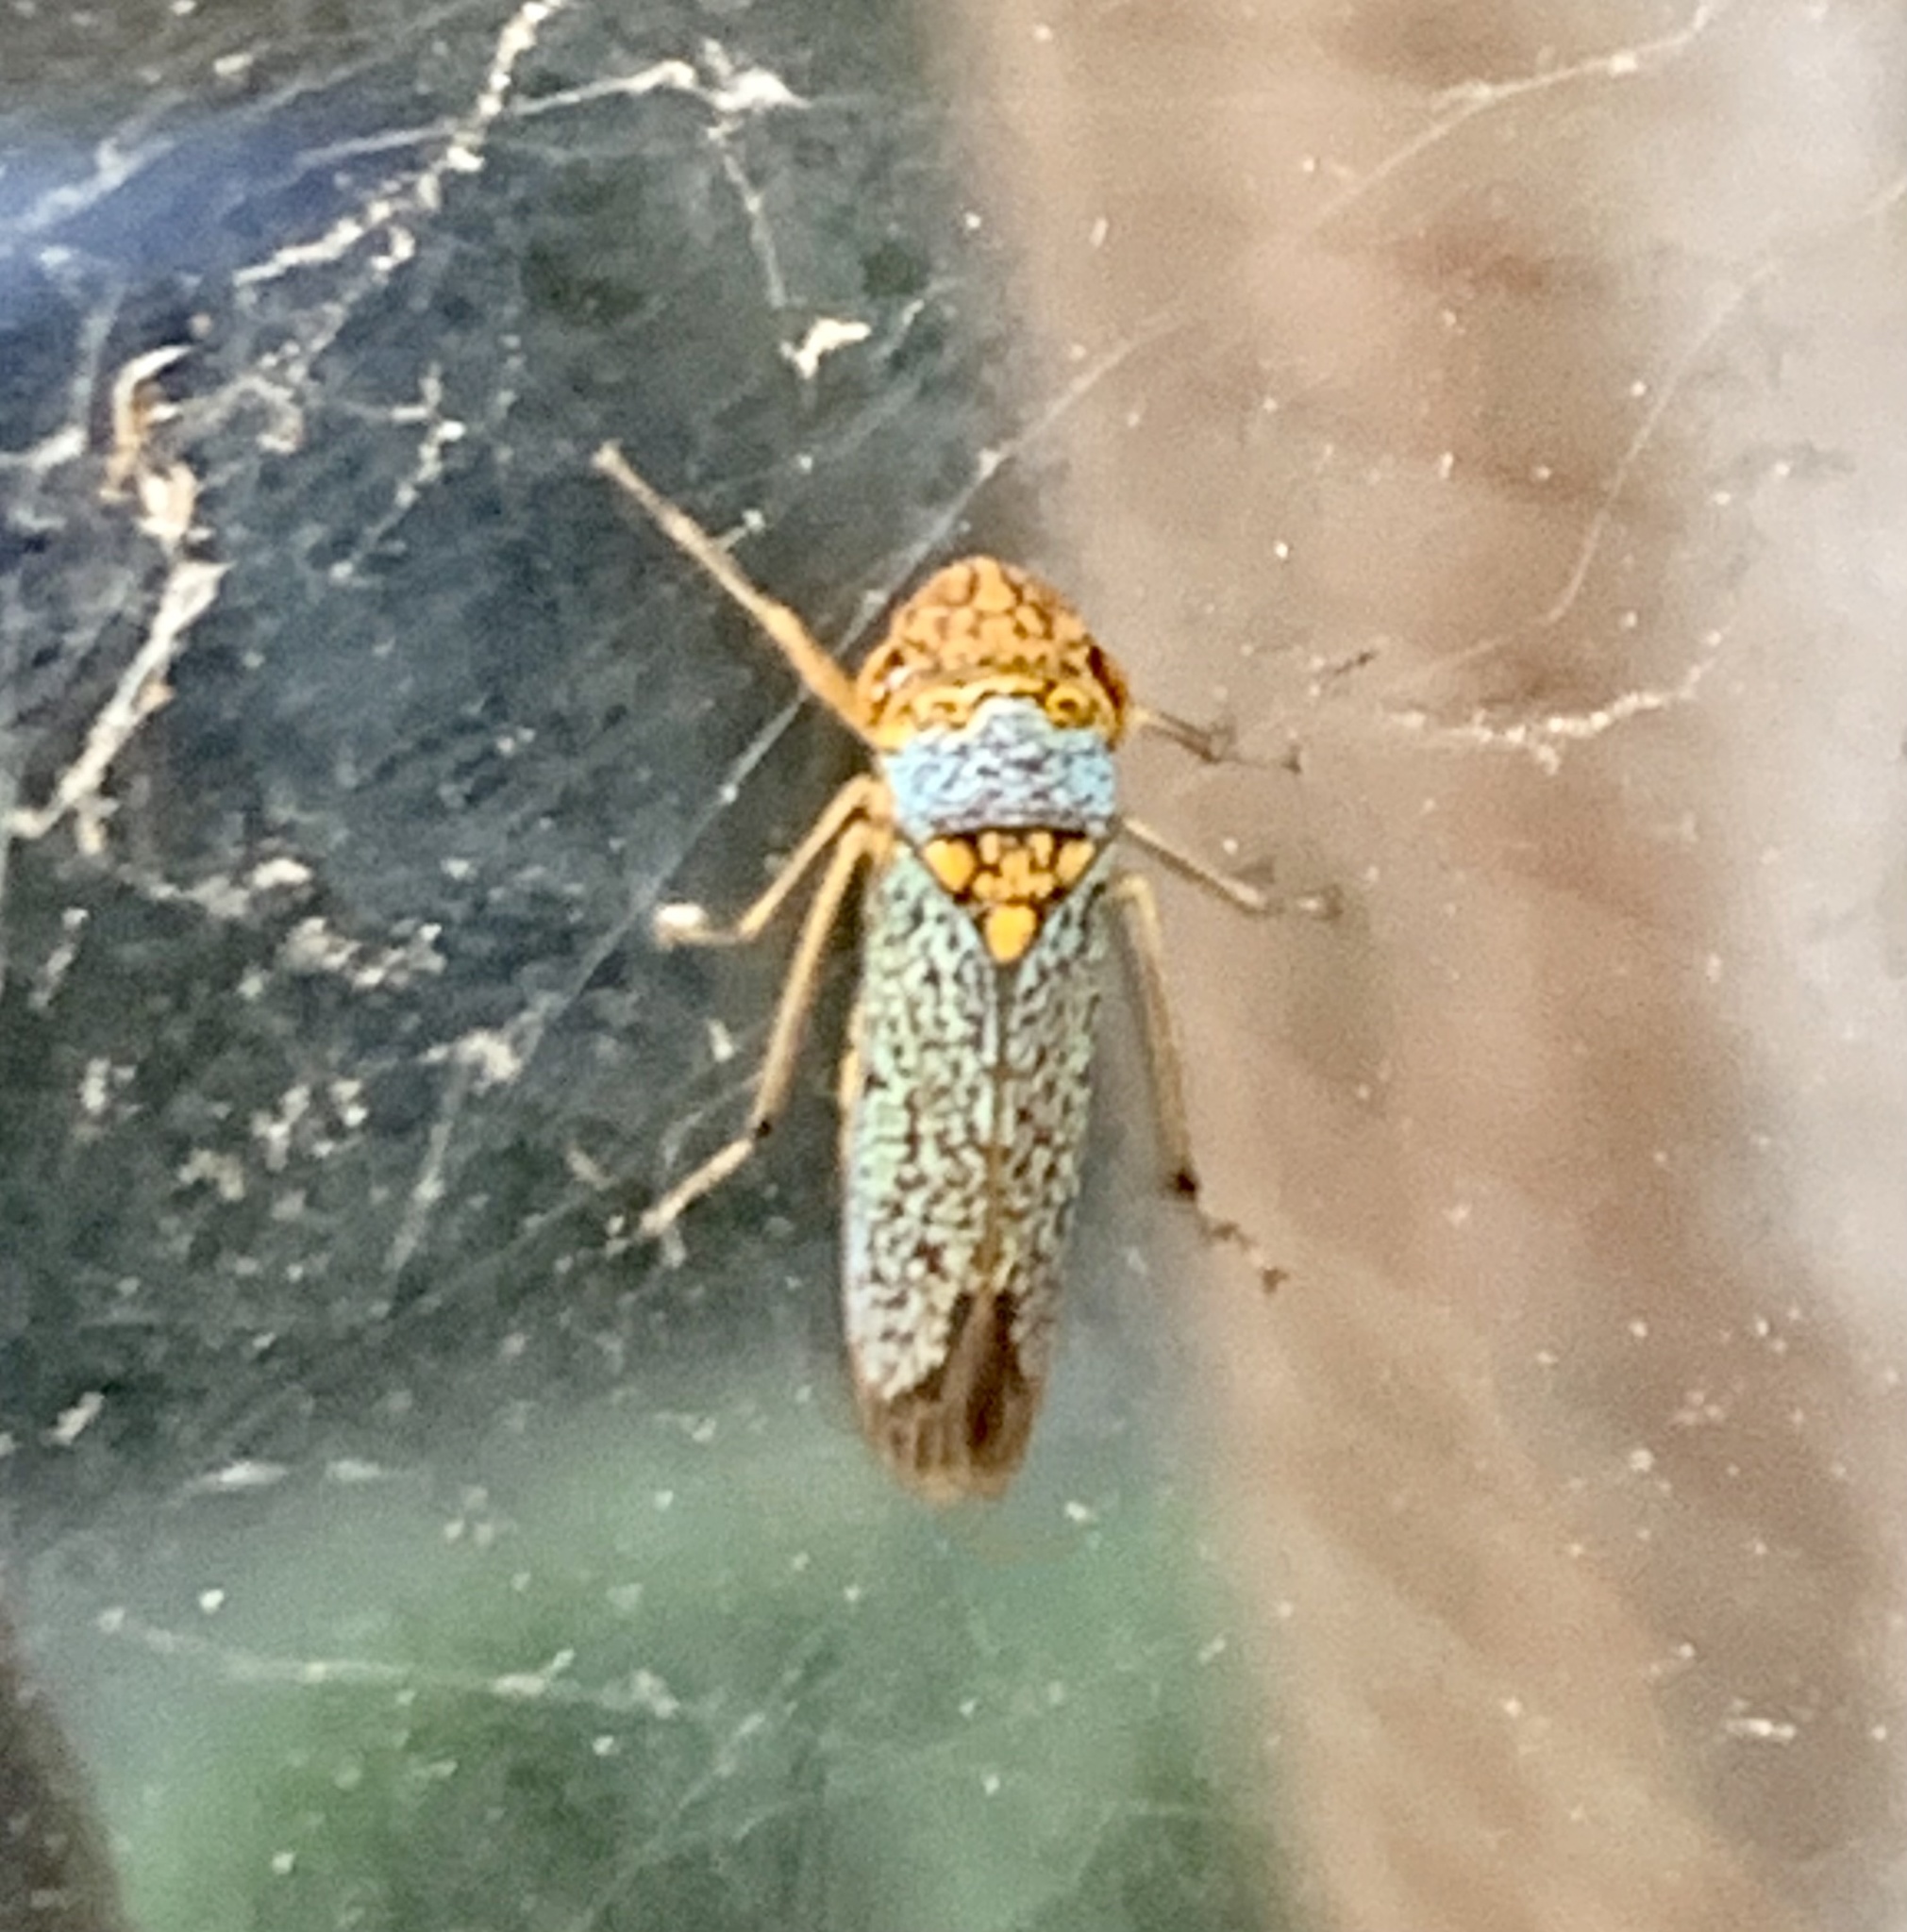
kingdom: Animalia
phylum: Arthropoda
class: Insecta
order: Hemiptera
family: Cicadellidae
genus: Oncometopia
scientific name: Oncometopia orbona
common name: Broad-headed sharpshooter
